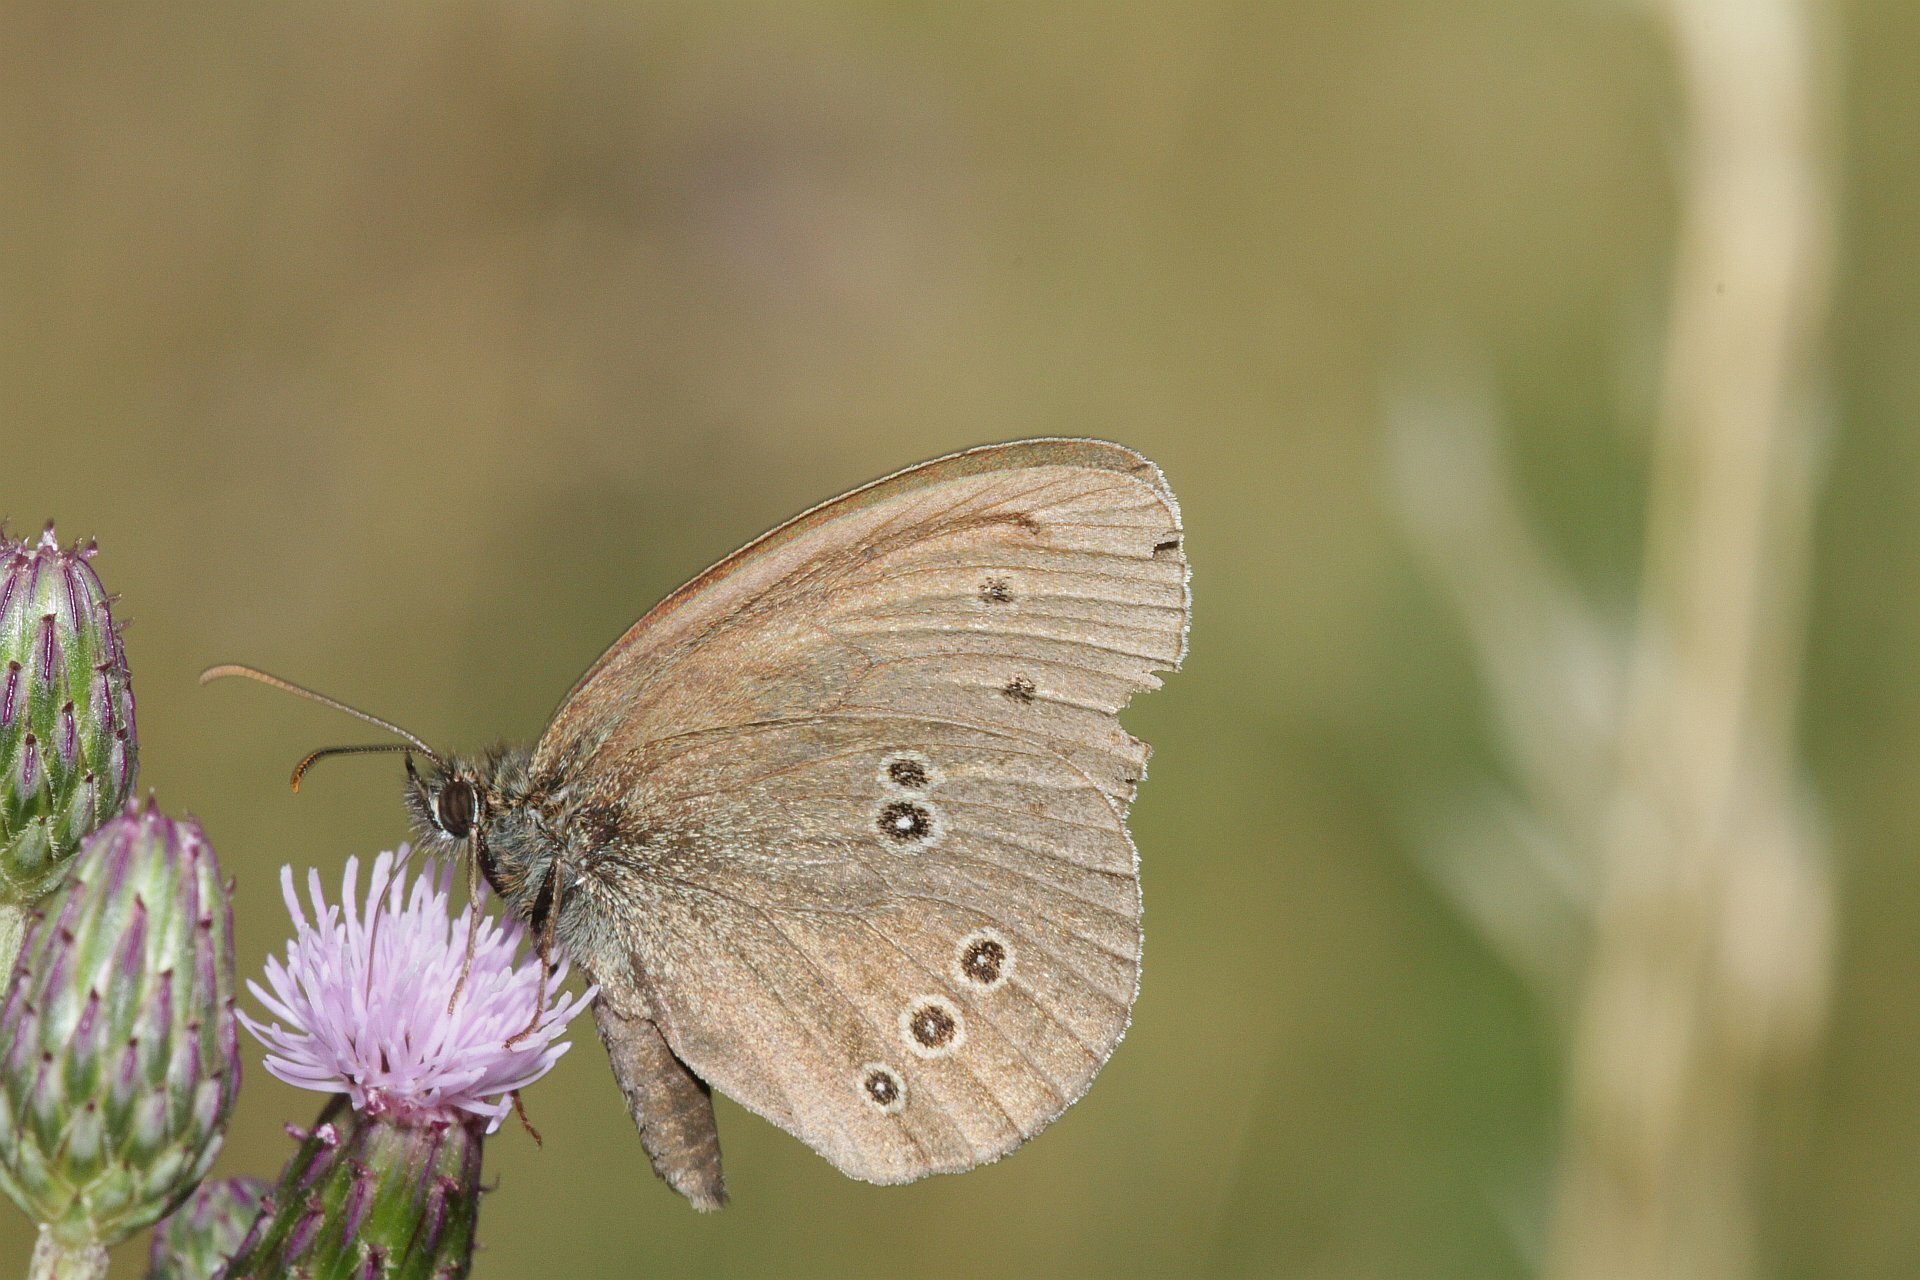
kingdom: Animalia
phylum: Arthropoda
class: Insecta
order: Lepidoptera
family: Nymphalidae
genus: Aphantopus
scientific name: Aphantopus hyperantus
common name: Ringlet
